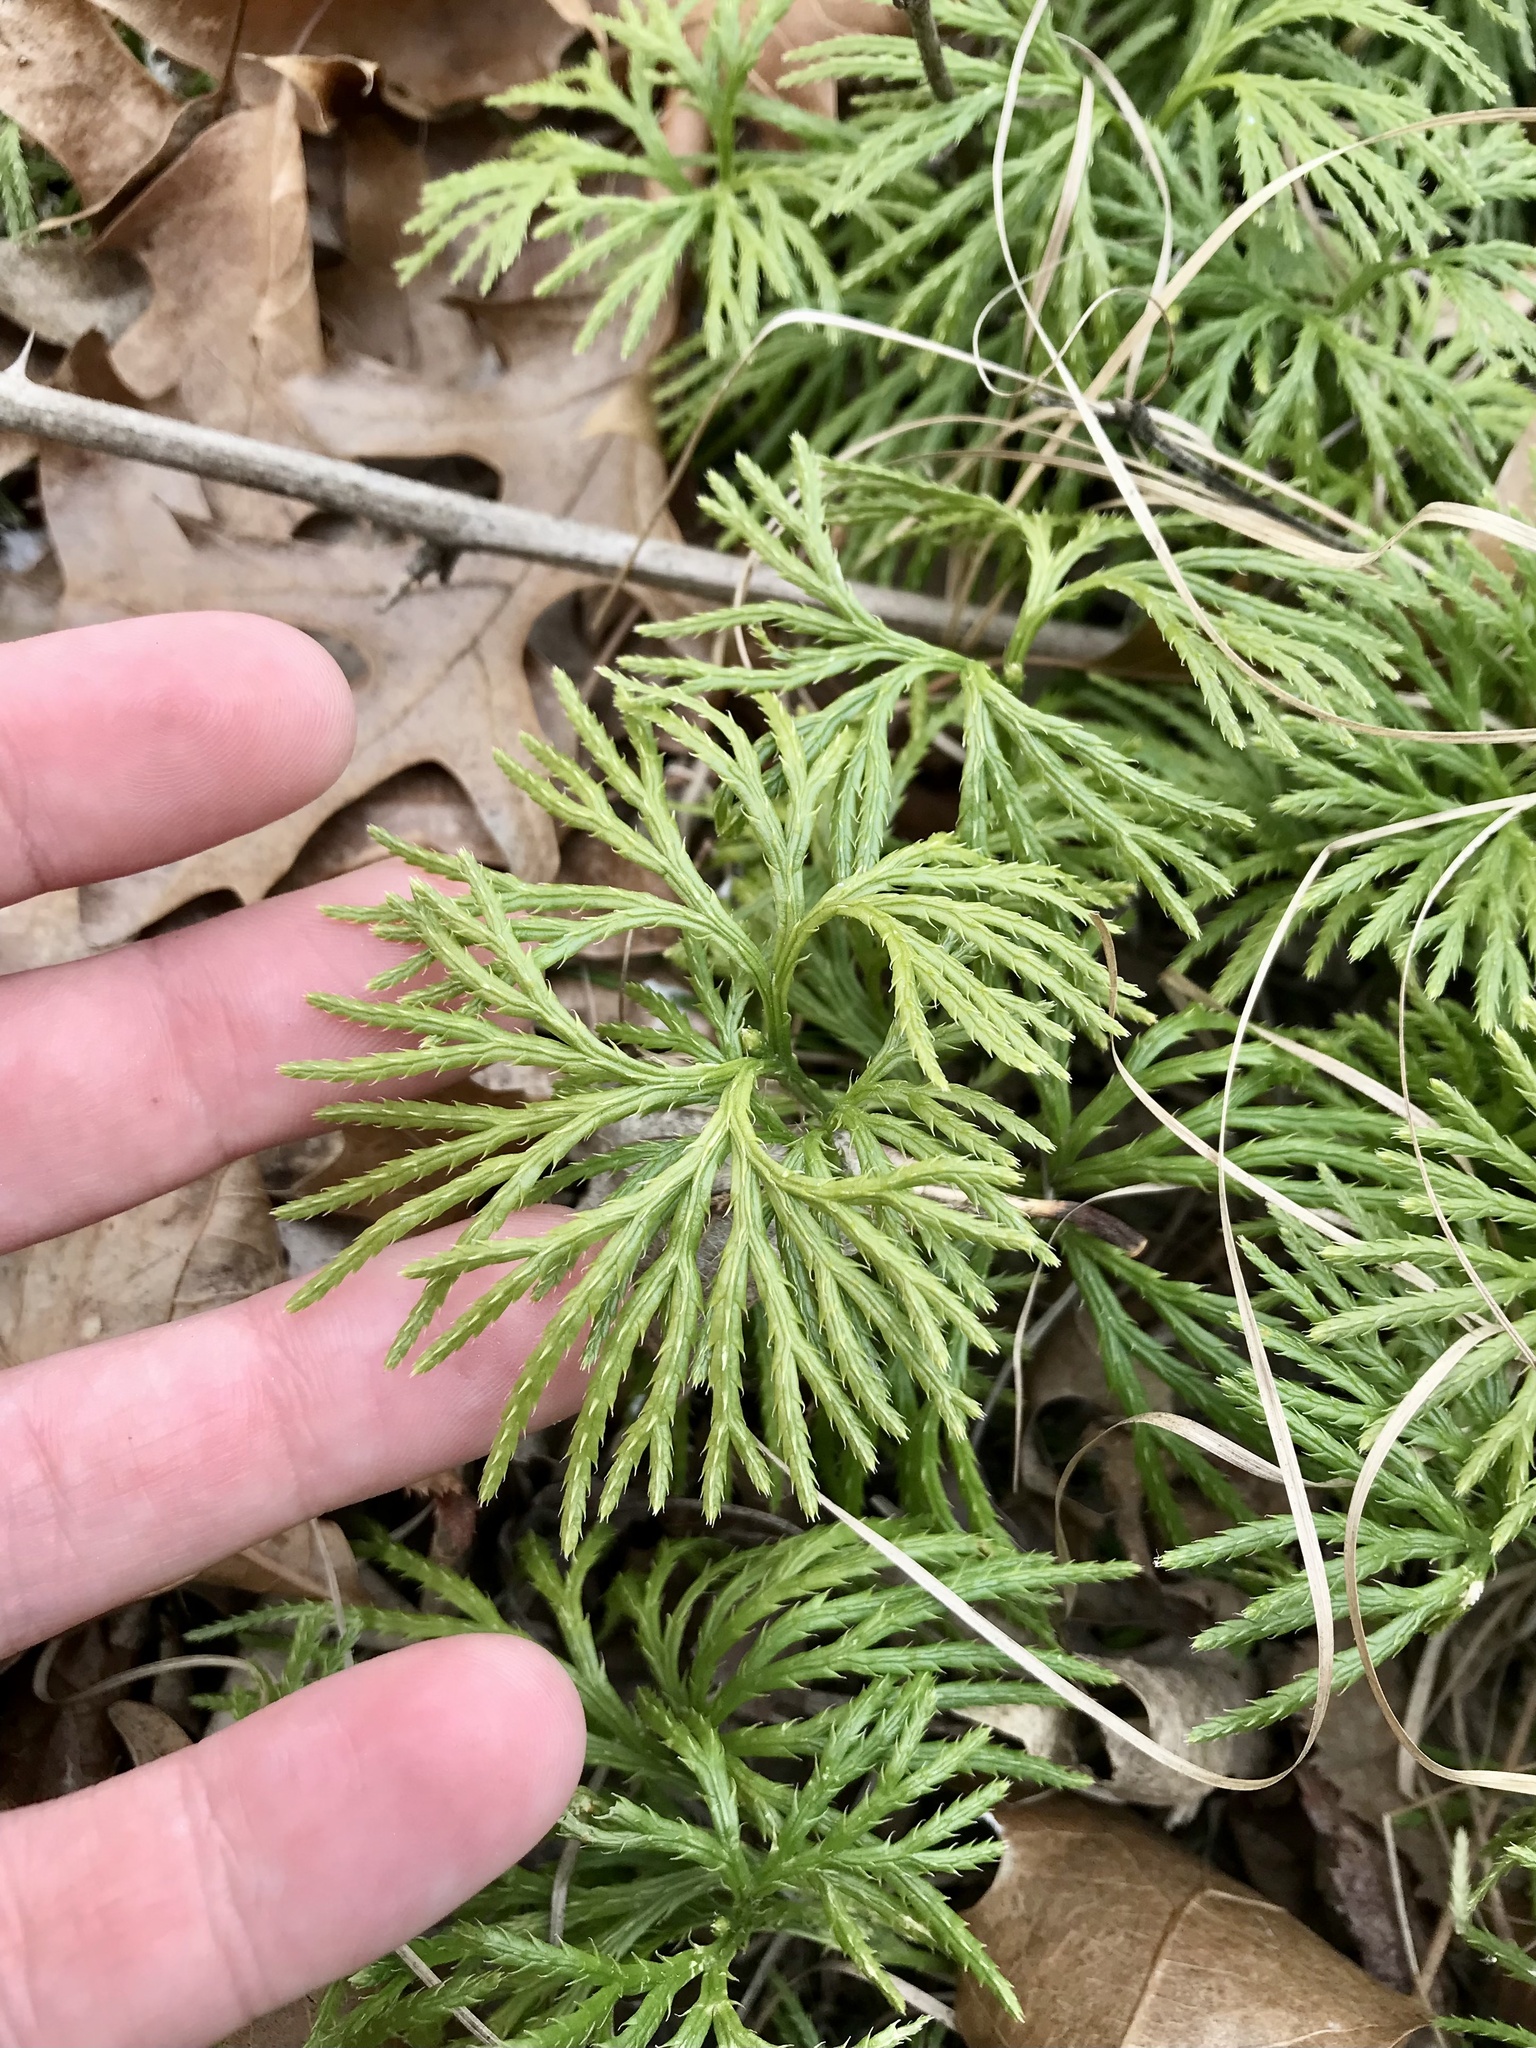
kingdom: Plantae
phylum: Tracheophyta
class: Lycopodiopsida
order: Lycopodiales
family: Lycopodiaceae
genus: Diphasiastrum
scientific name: Diphasiastrum digitatum
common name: Southern running-pine
